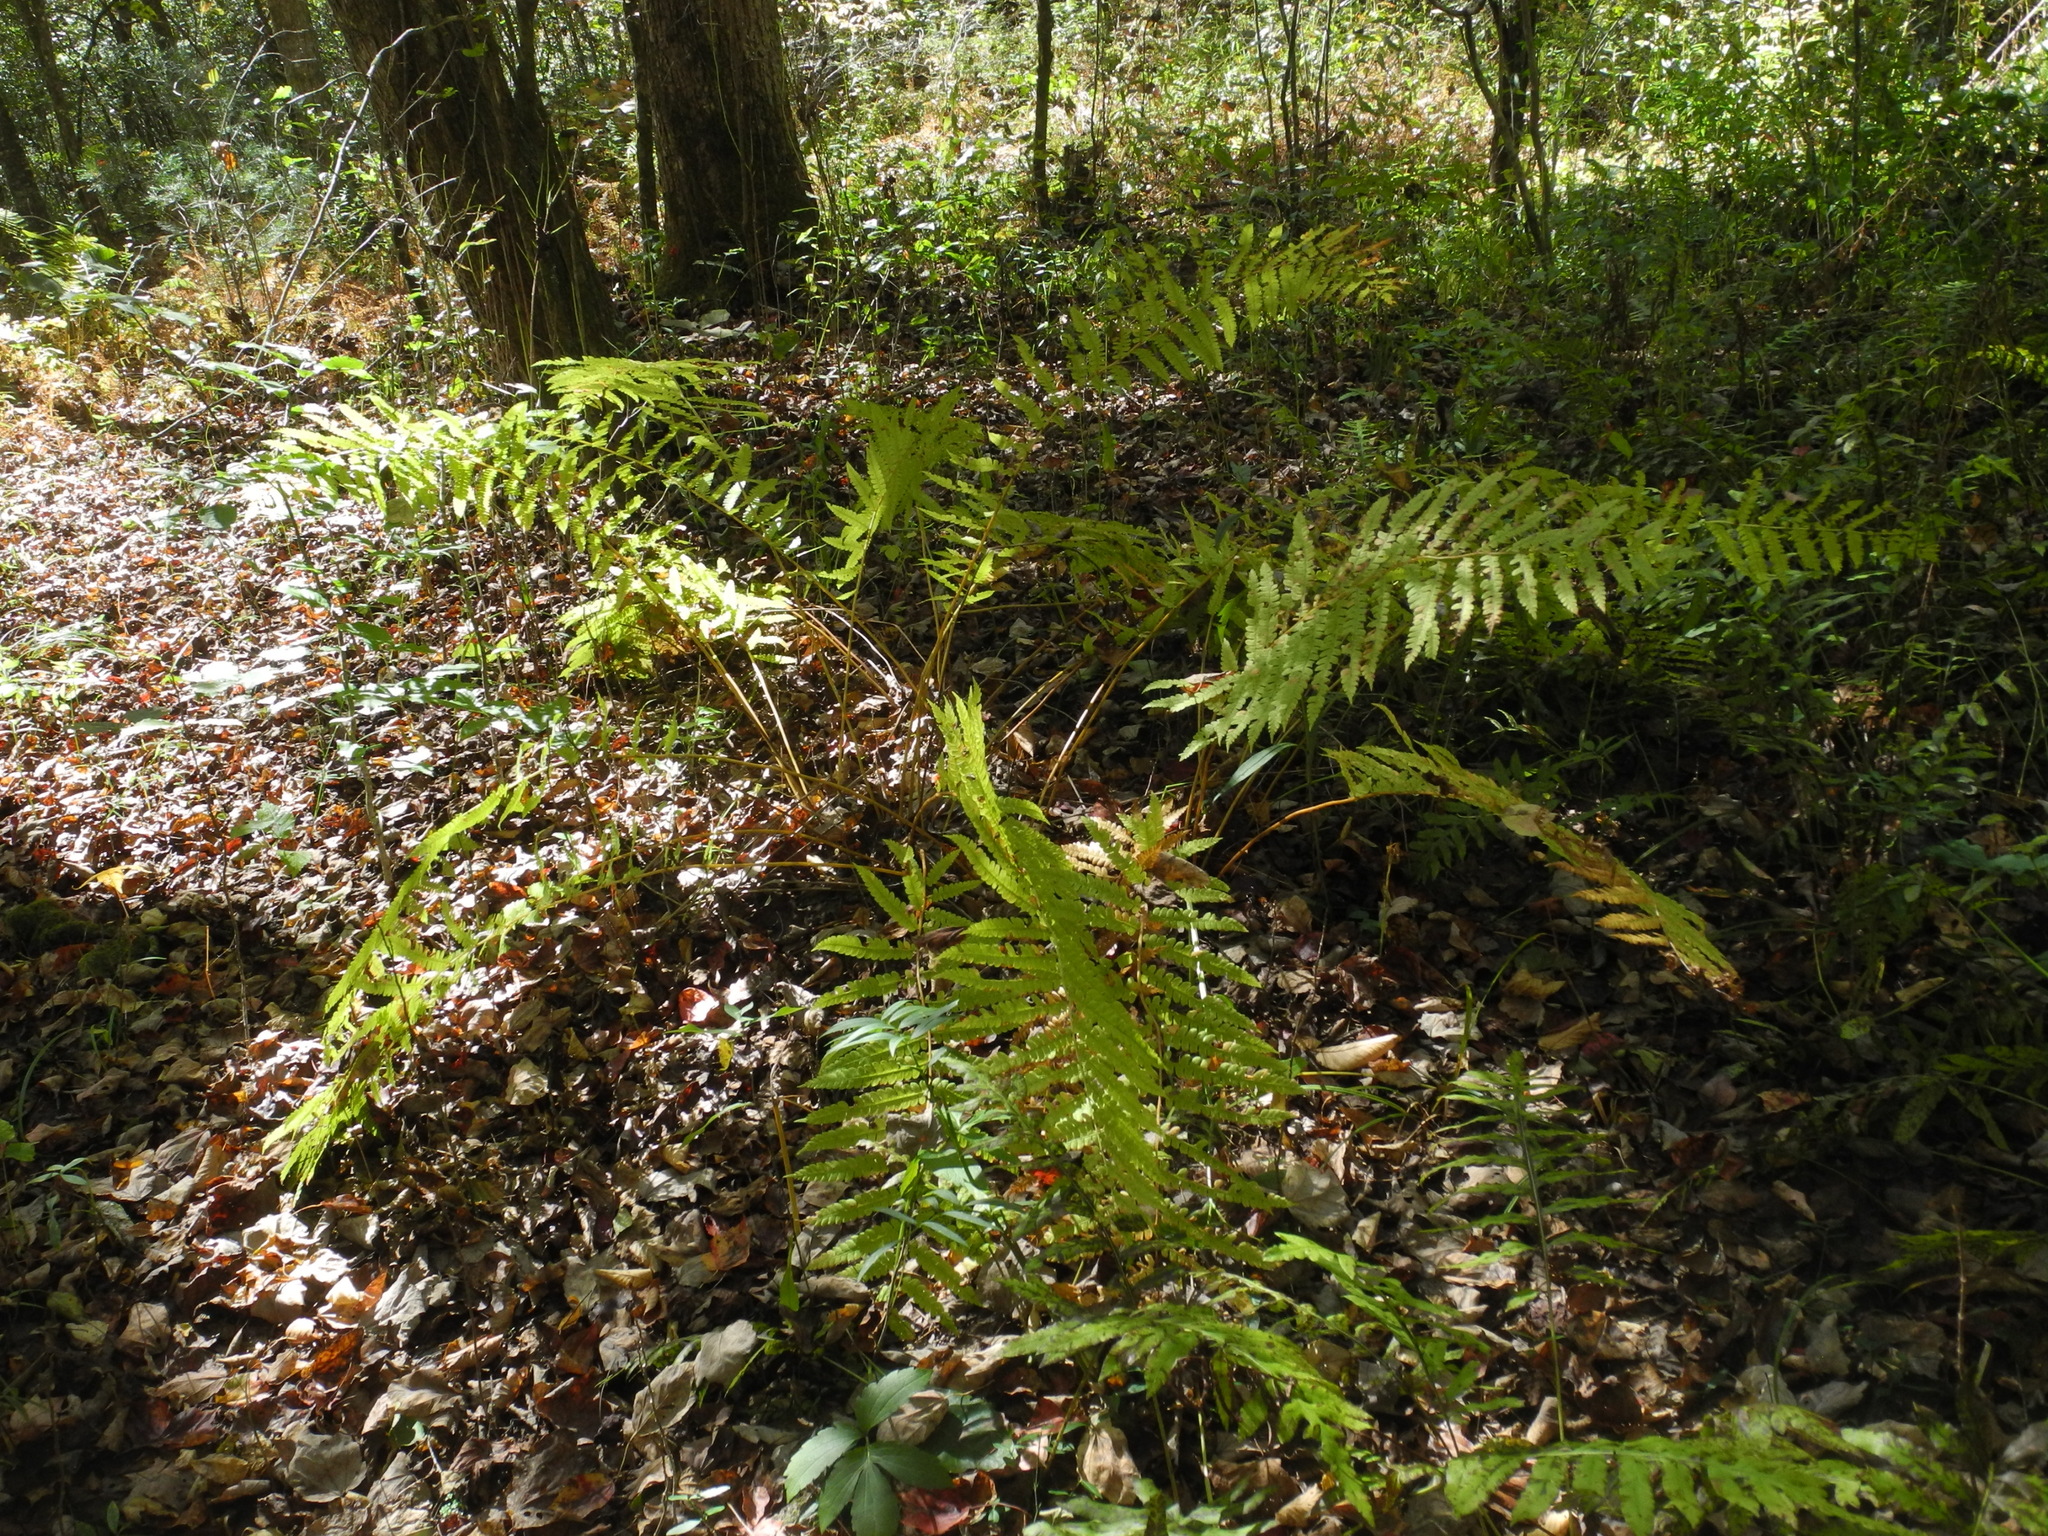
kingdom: Plantae
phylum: Tracheophyta
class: Polypodiopsida
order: Osmundales
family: Osmundaceae
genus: Osmundastrum
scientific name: Osmundastrum cinnamomeum
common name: Cinnamon fern
